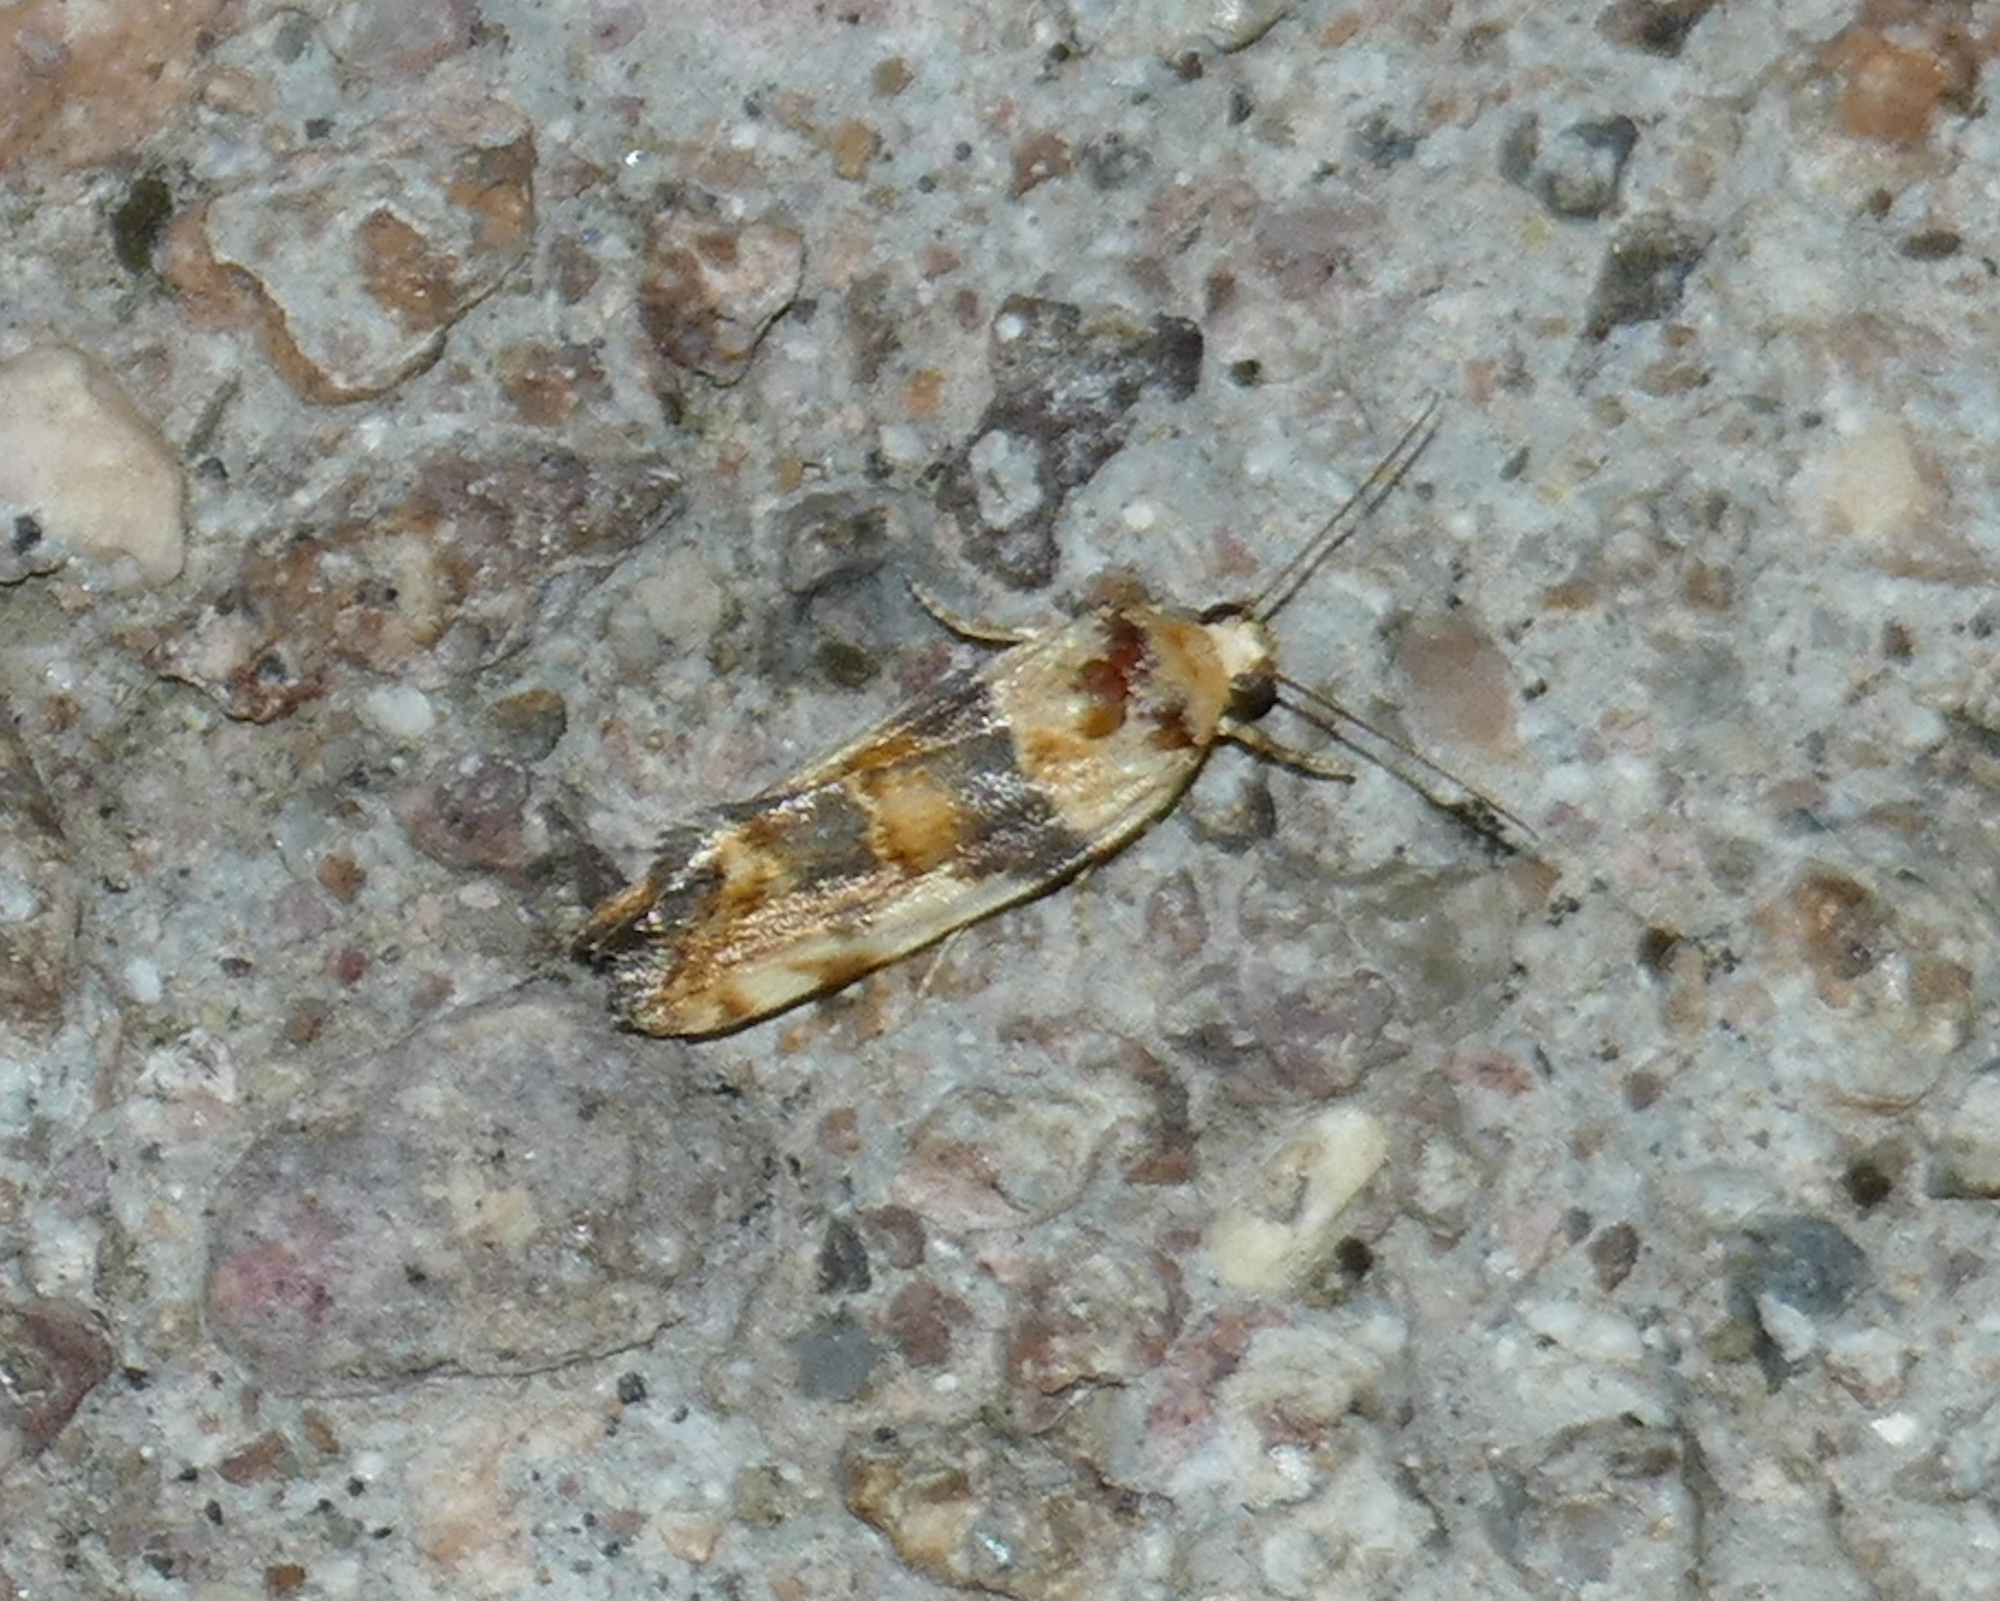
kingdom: Animalia
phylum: Arthropoda
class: Insecta
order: Lepidoptera
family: Noctuidae
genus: Acontia
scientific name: Acontia obatra
